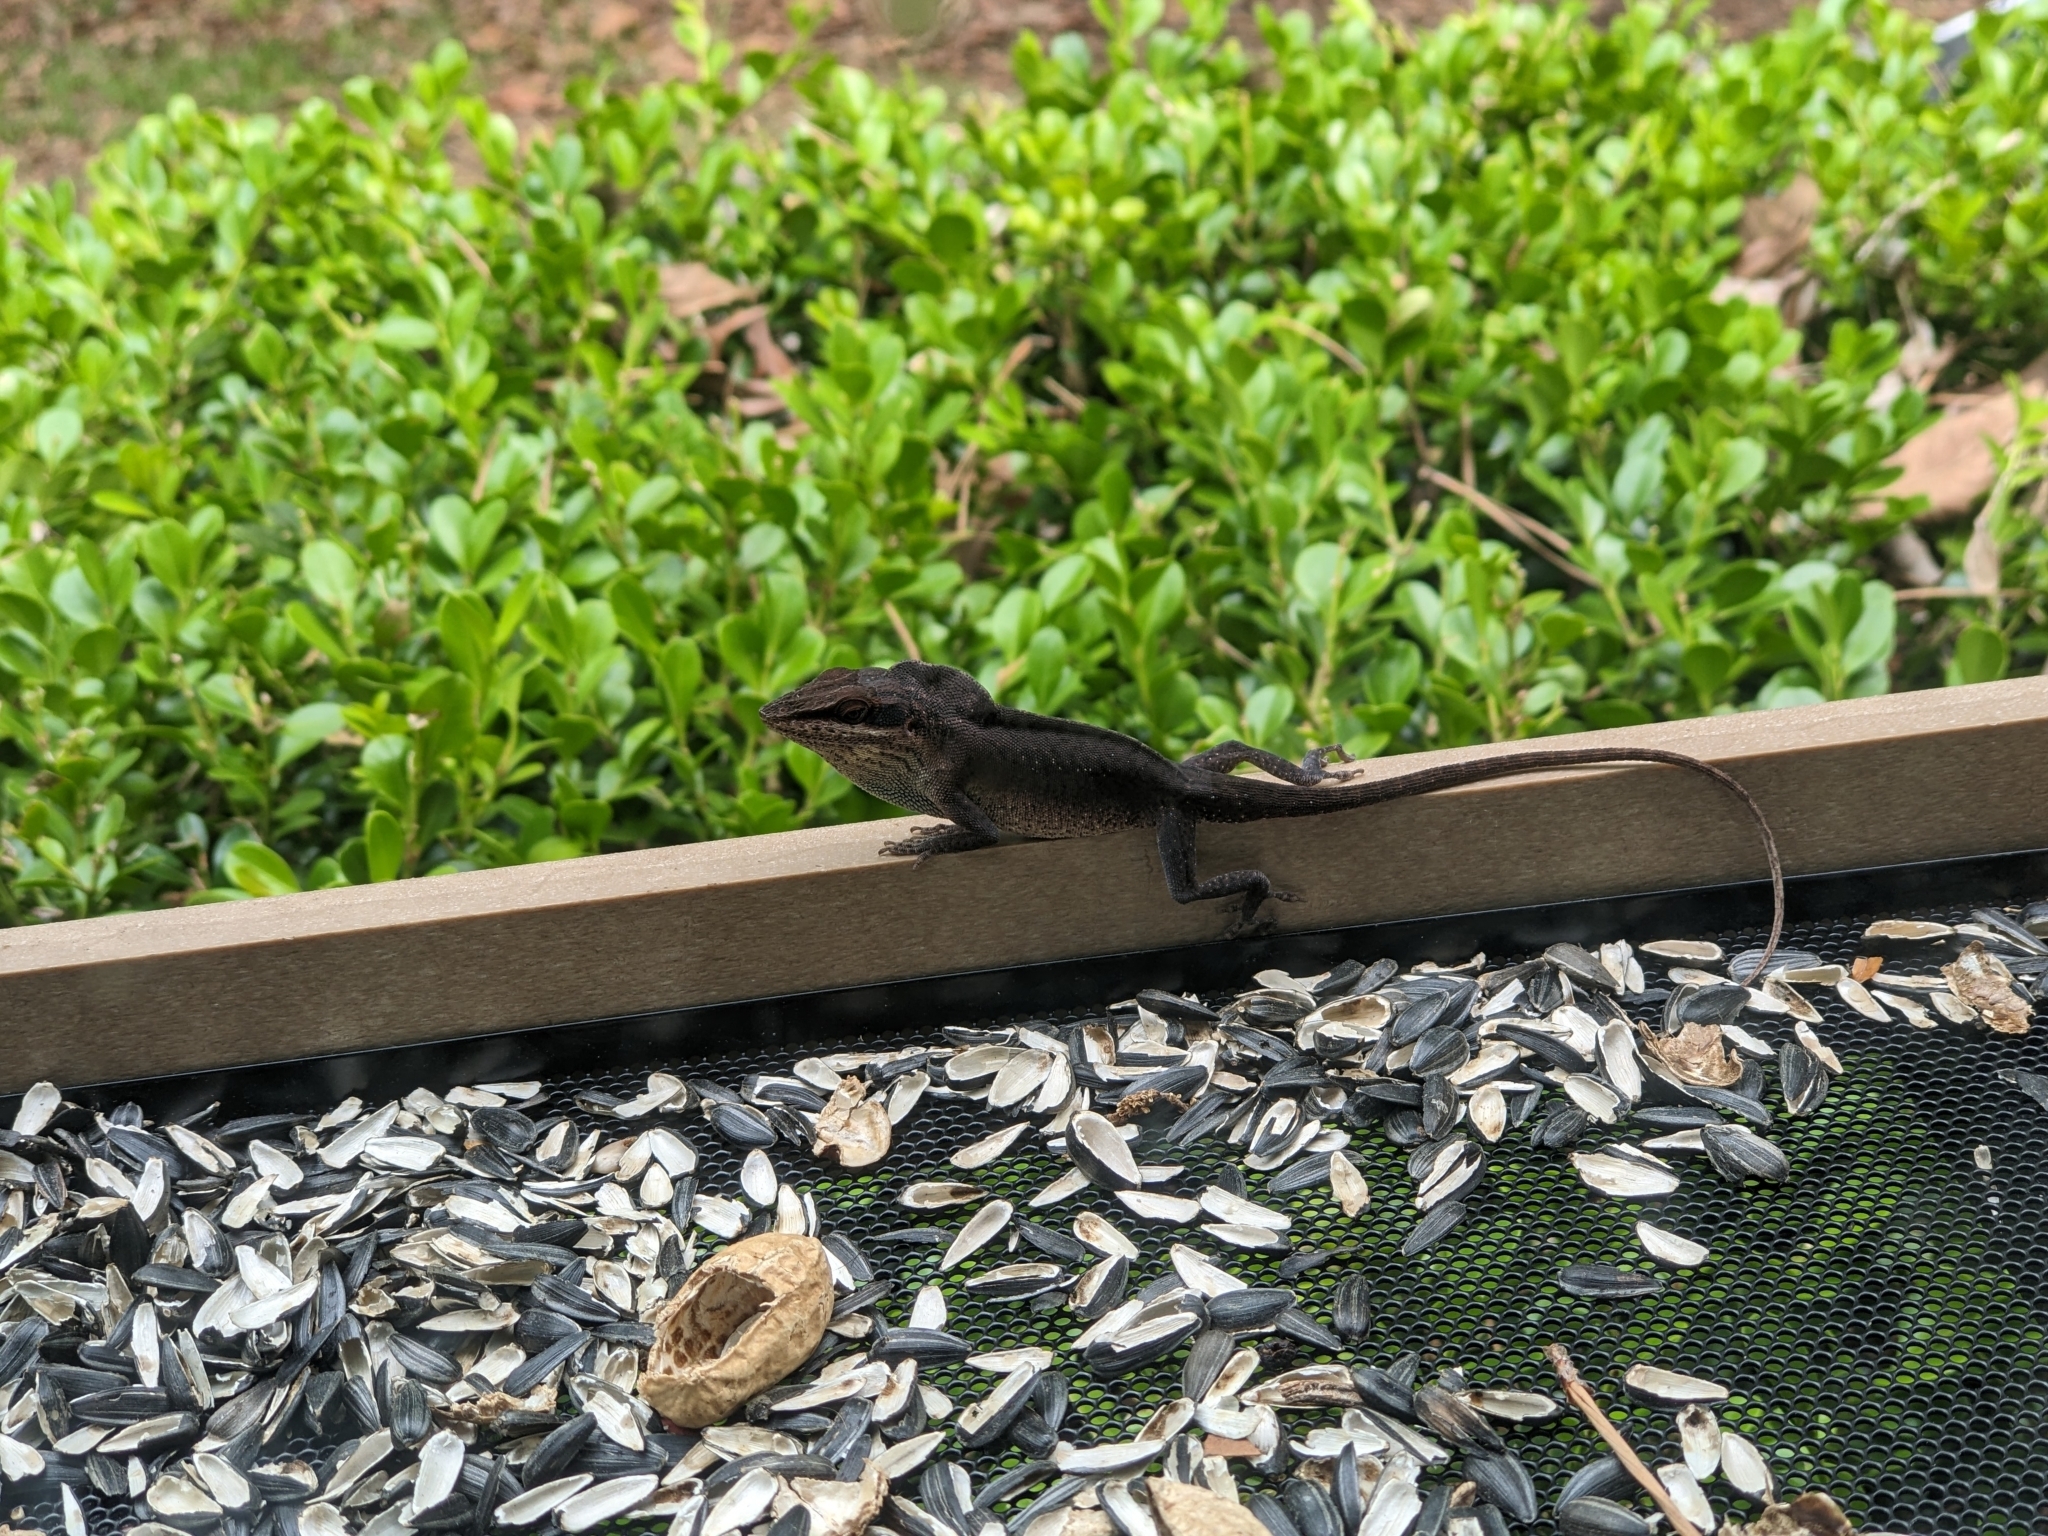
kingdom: Animalia
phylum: Chordata
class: Squamata
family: Dactyloidae
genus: Anolis
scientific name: Anolis carolinensis
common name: Green anole
